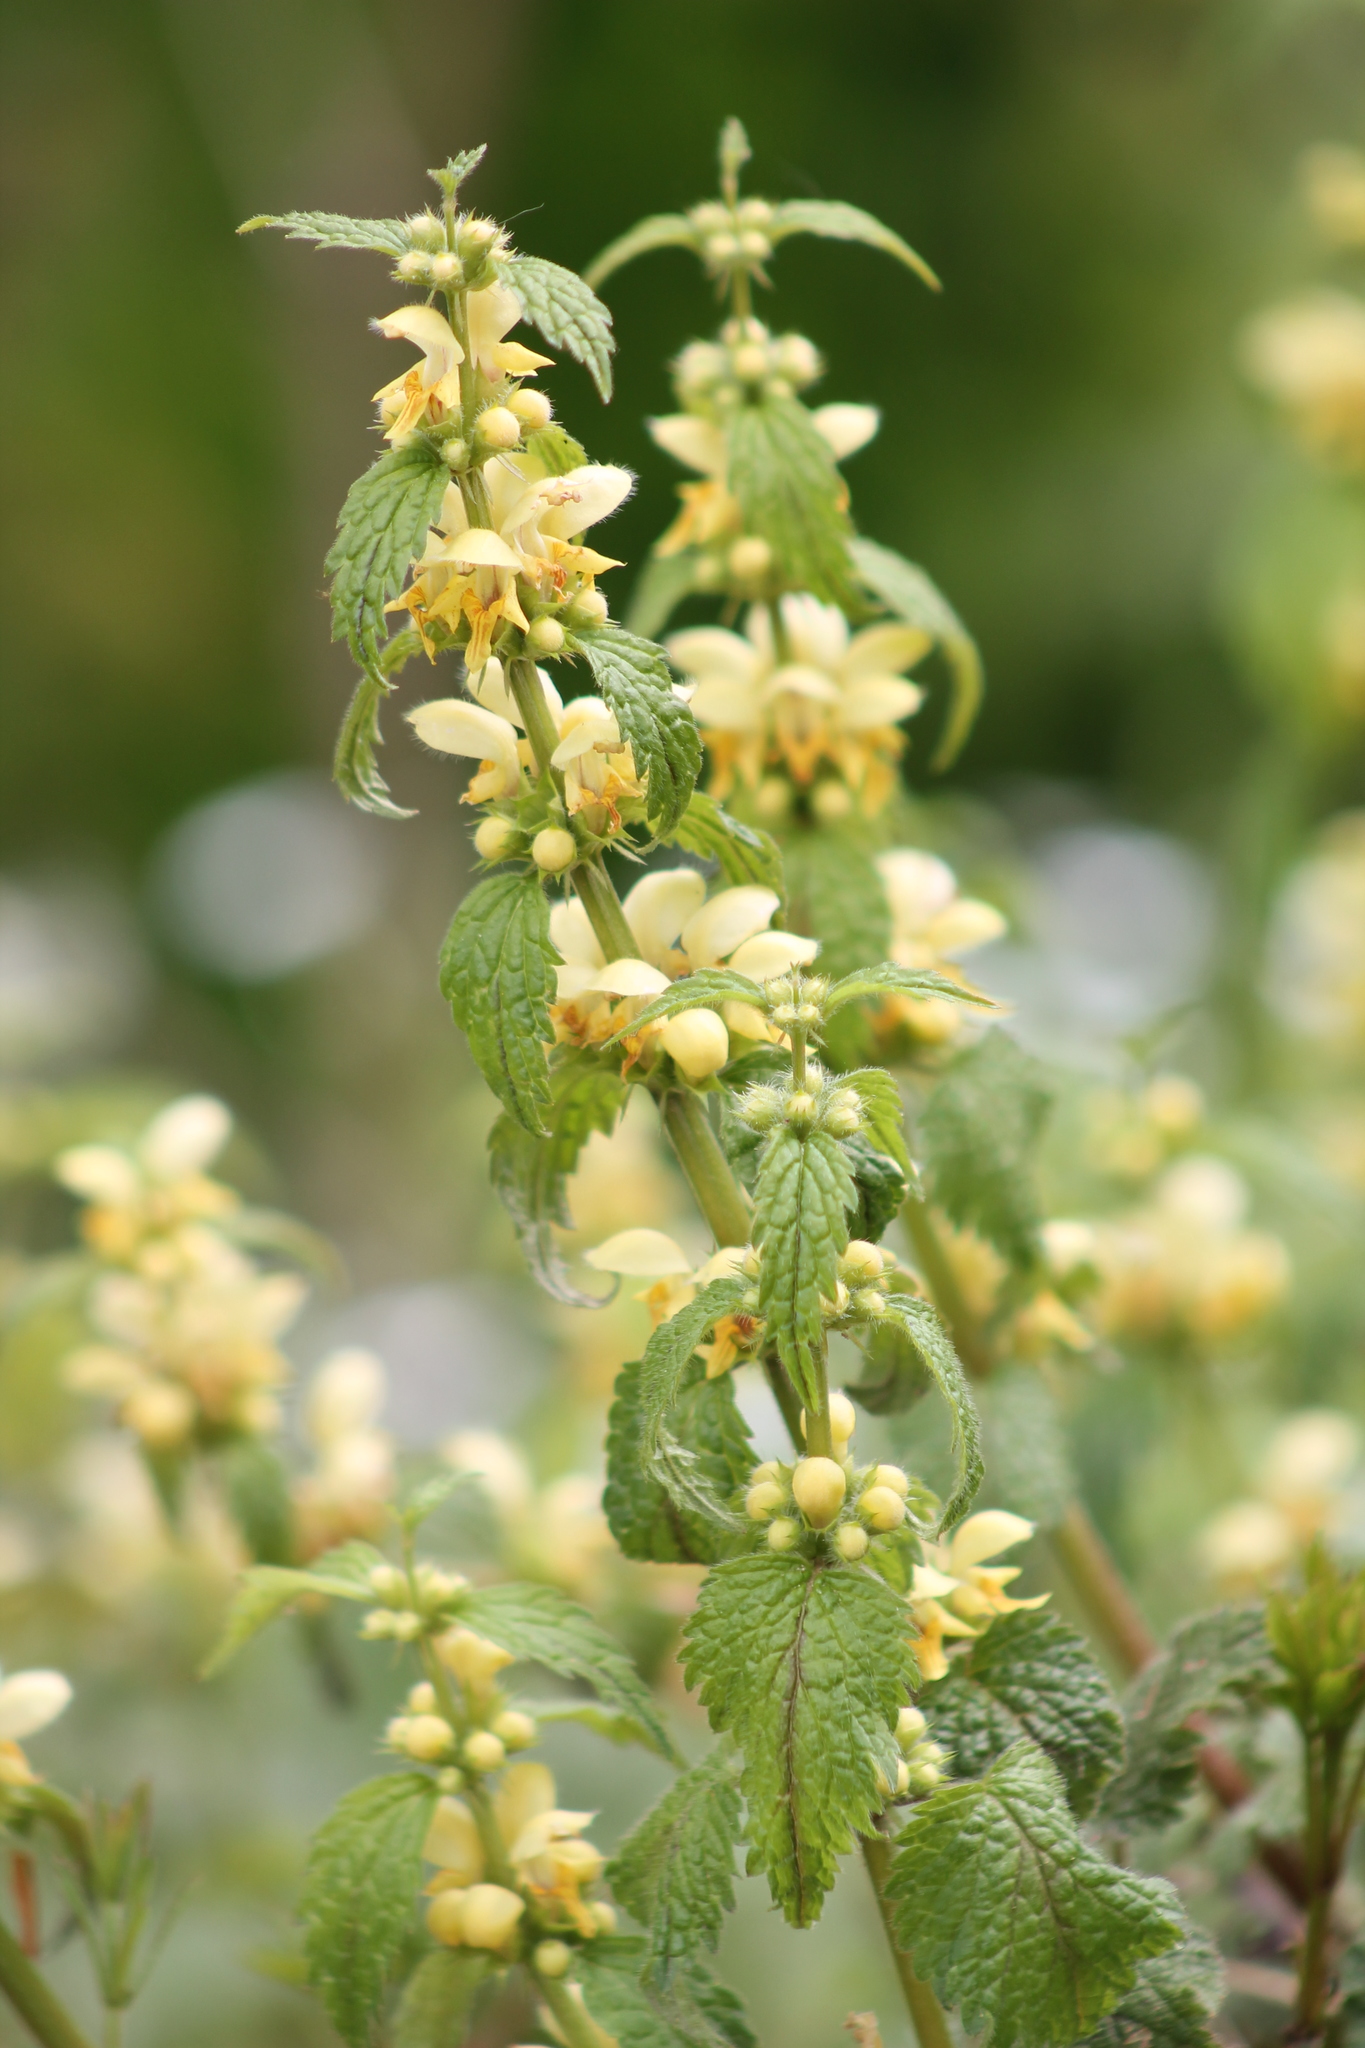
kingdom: Plantae
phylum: Tracheophyta
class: Magnoliopsida
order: Lamiales
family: Lamiaceae
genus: Lamium
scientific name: Lamium galeobdolon
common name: Yellow archangel
